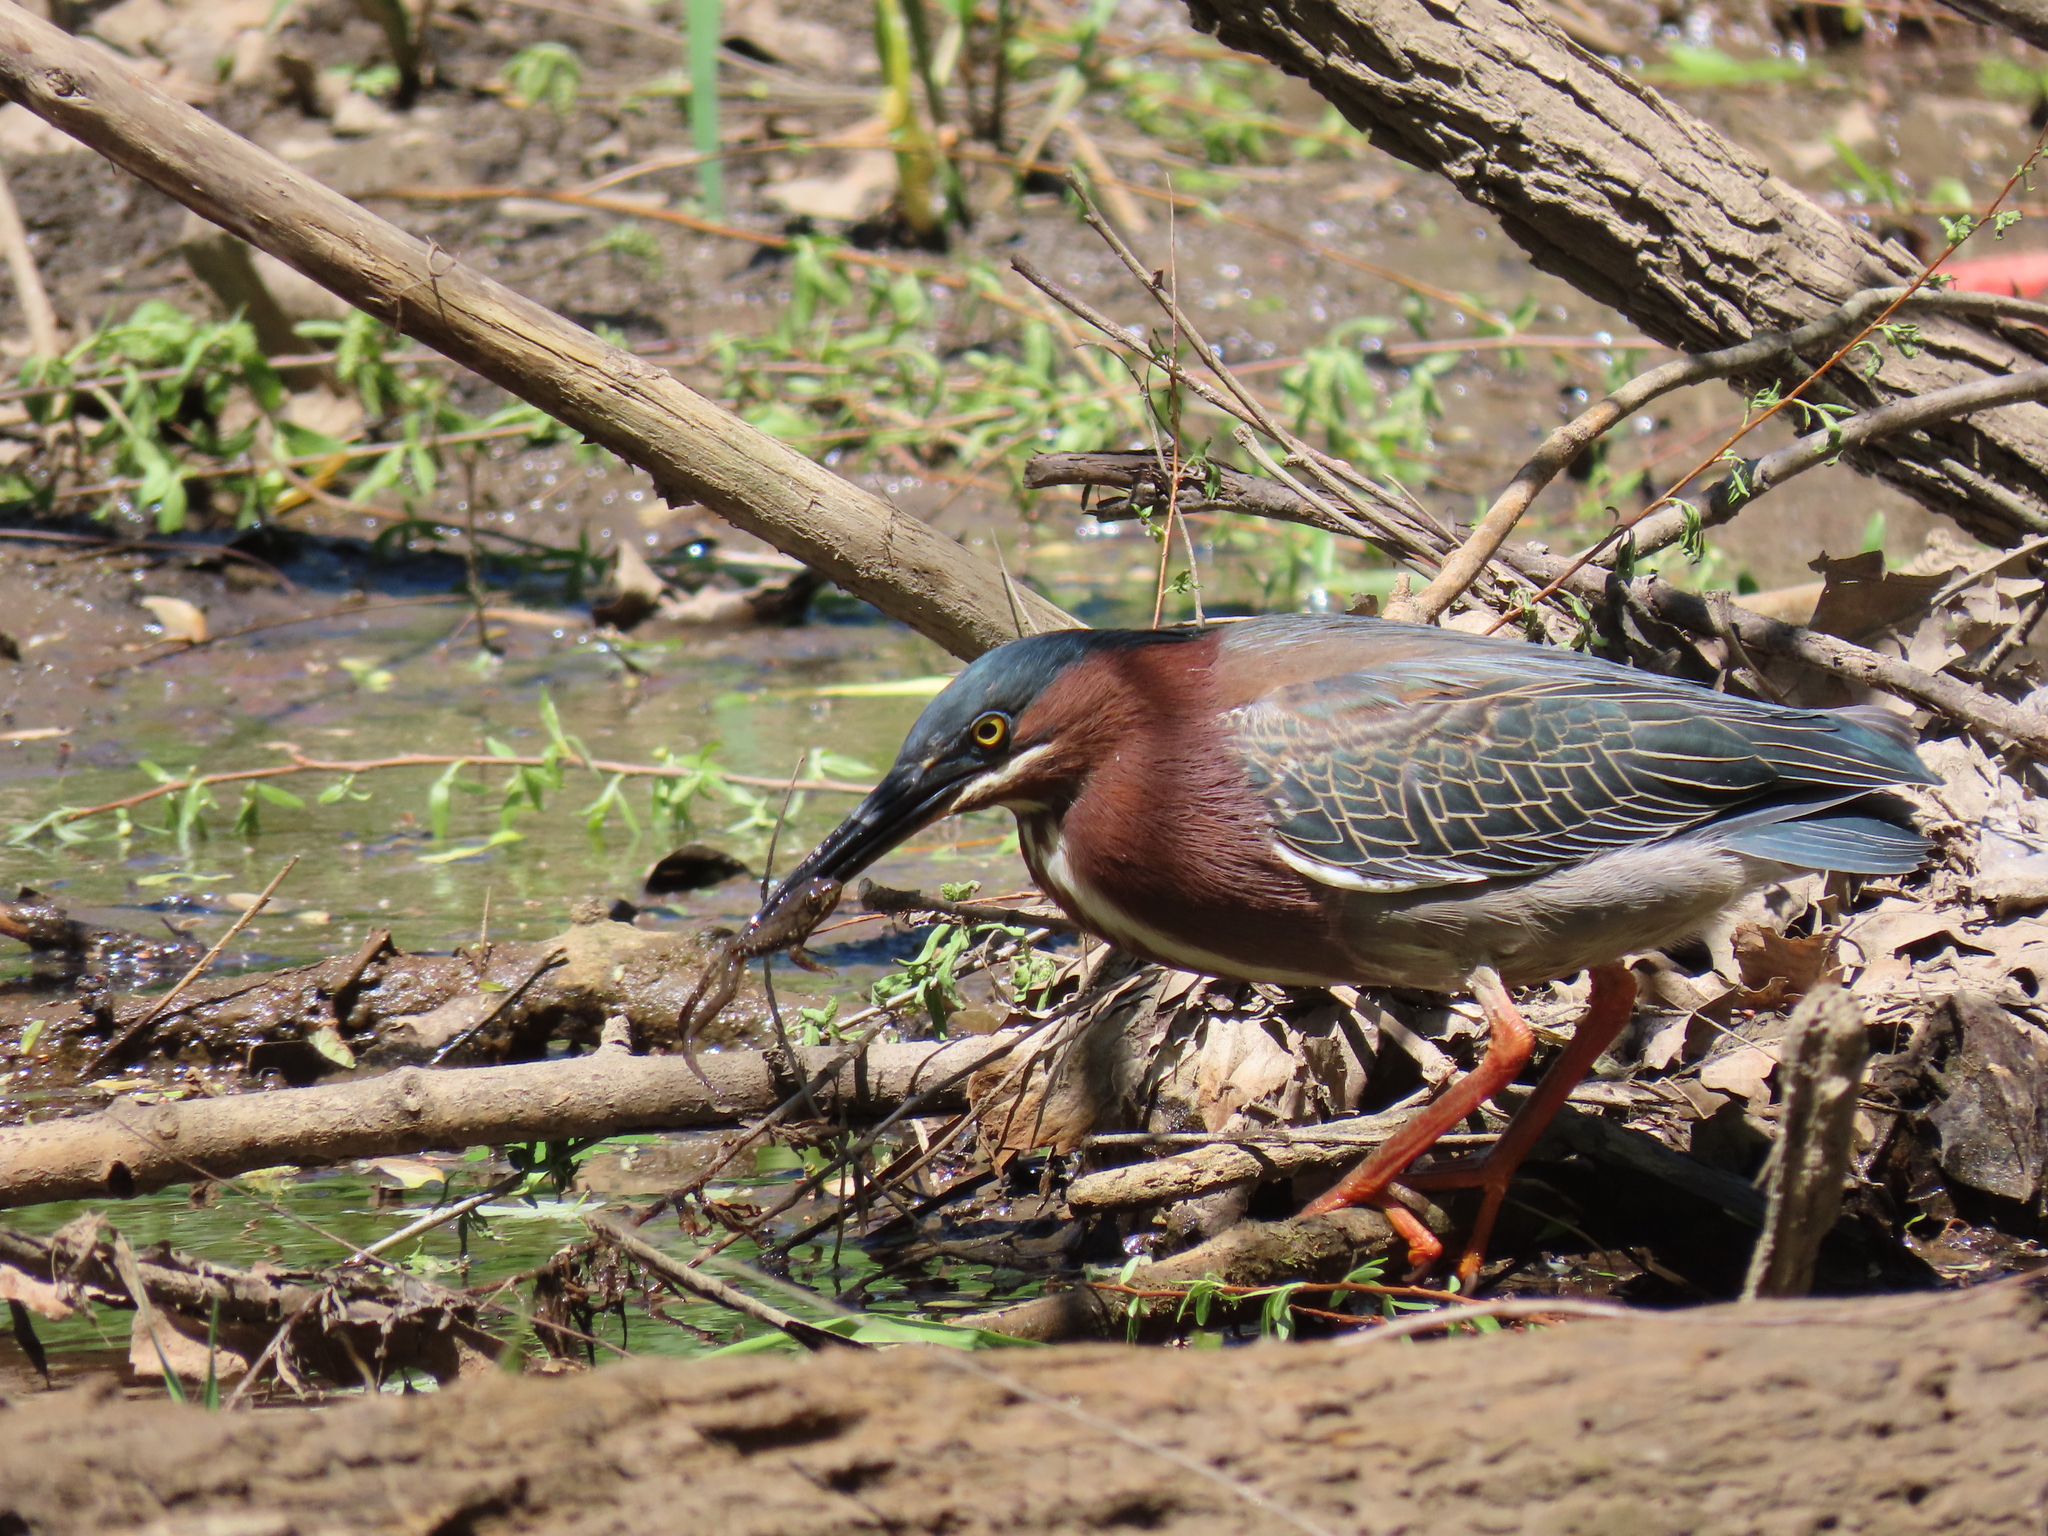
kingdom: Animalia
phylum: Chordata
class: Amphibia
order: Anura
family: Ranidae
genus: Lithobates
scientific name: Lithobates clamitans
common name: Green frog
